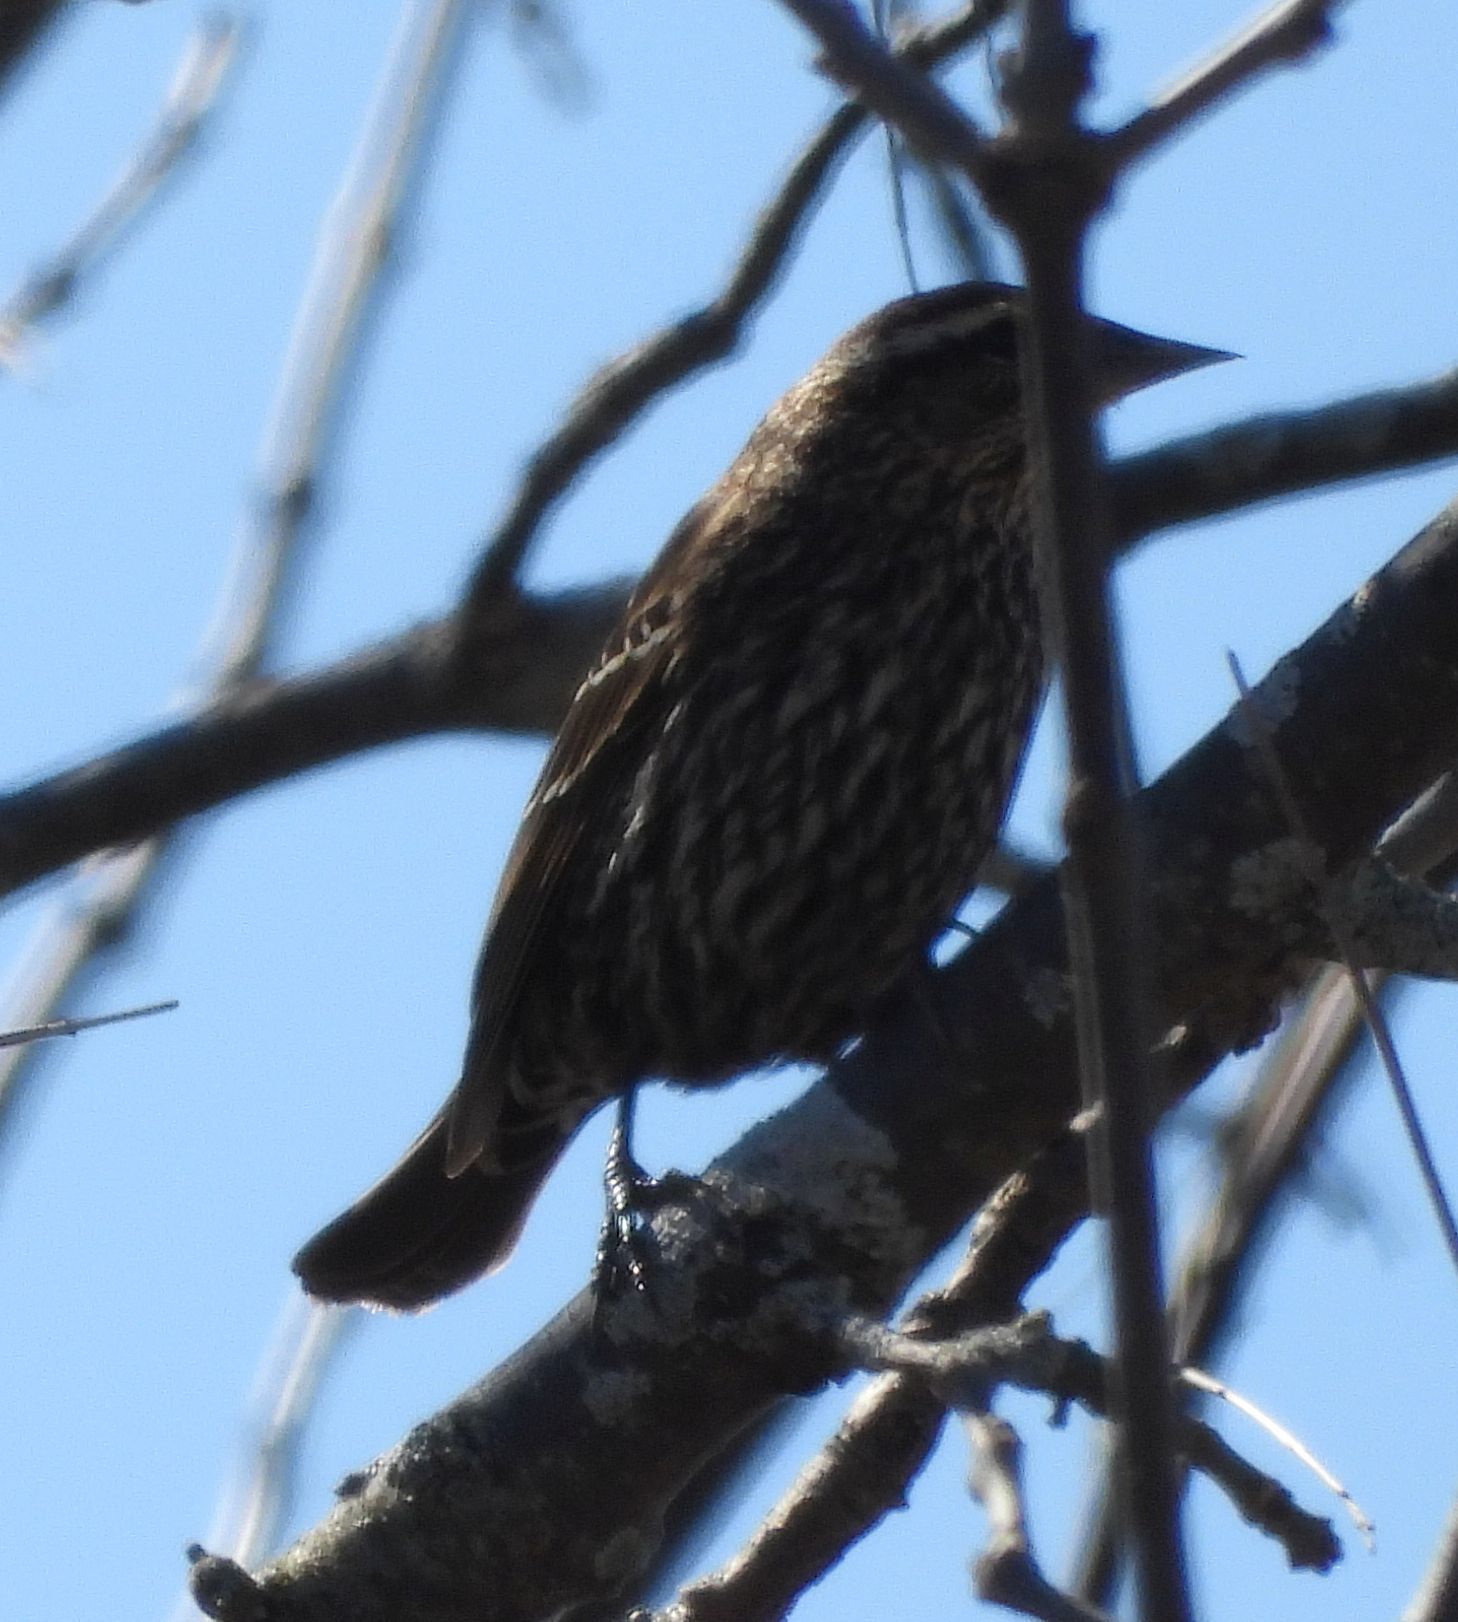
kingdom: Animalia
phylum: Chordata
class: Aves
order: Passeriformes
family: Icteridae
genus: Agelaius
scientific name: Agelaius phoeniceus
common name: Red-winged blackbird
